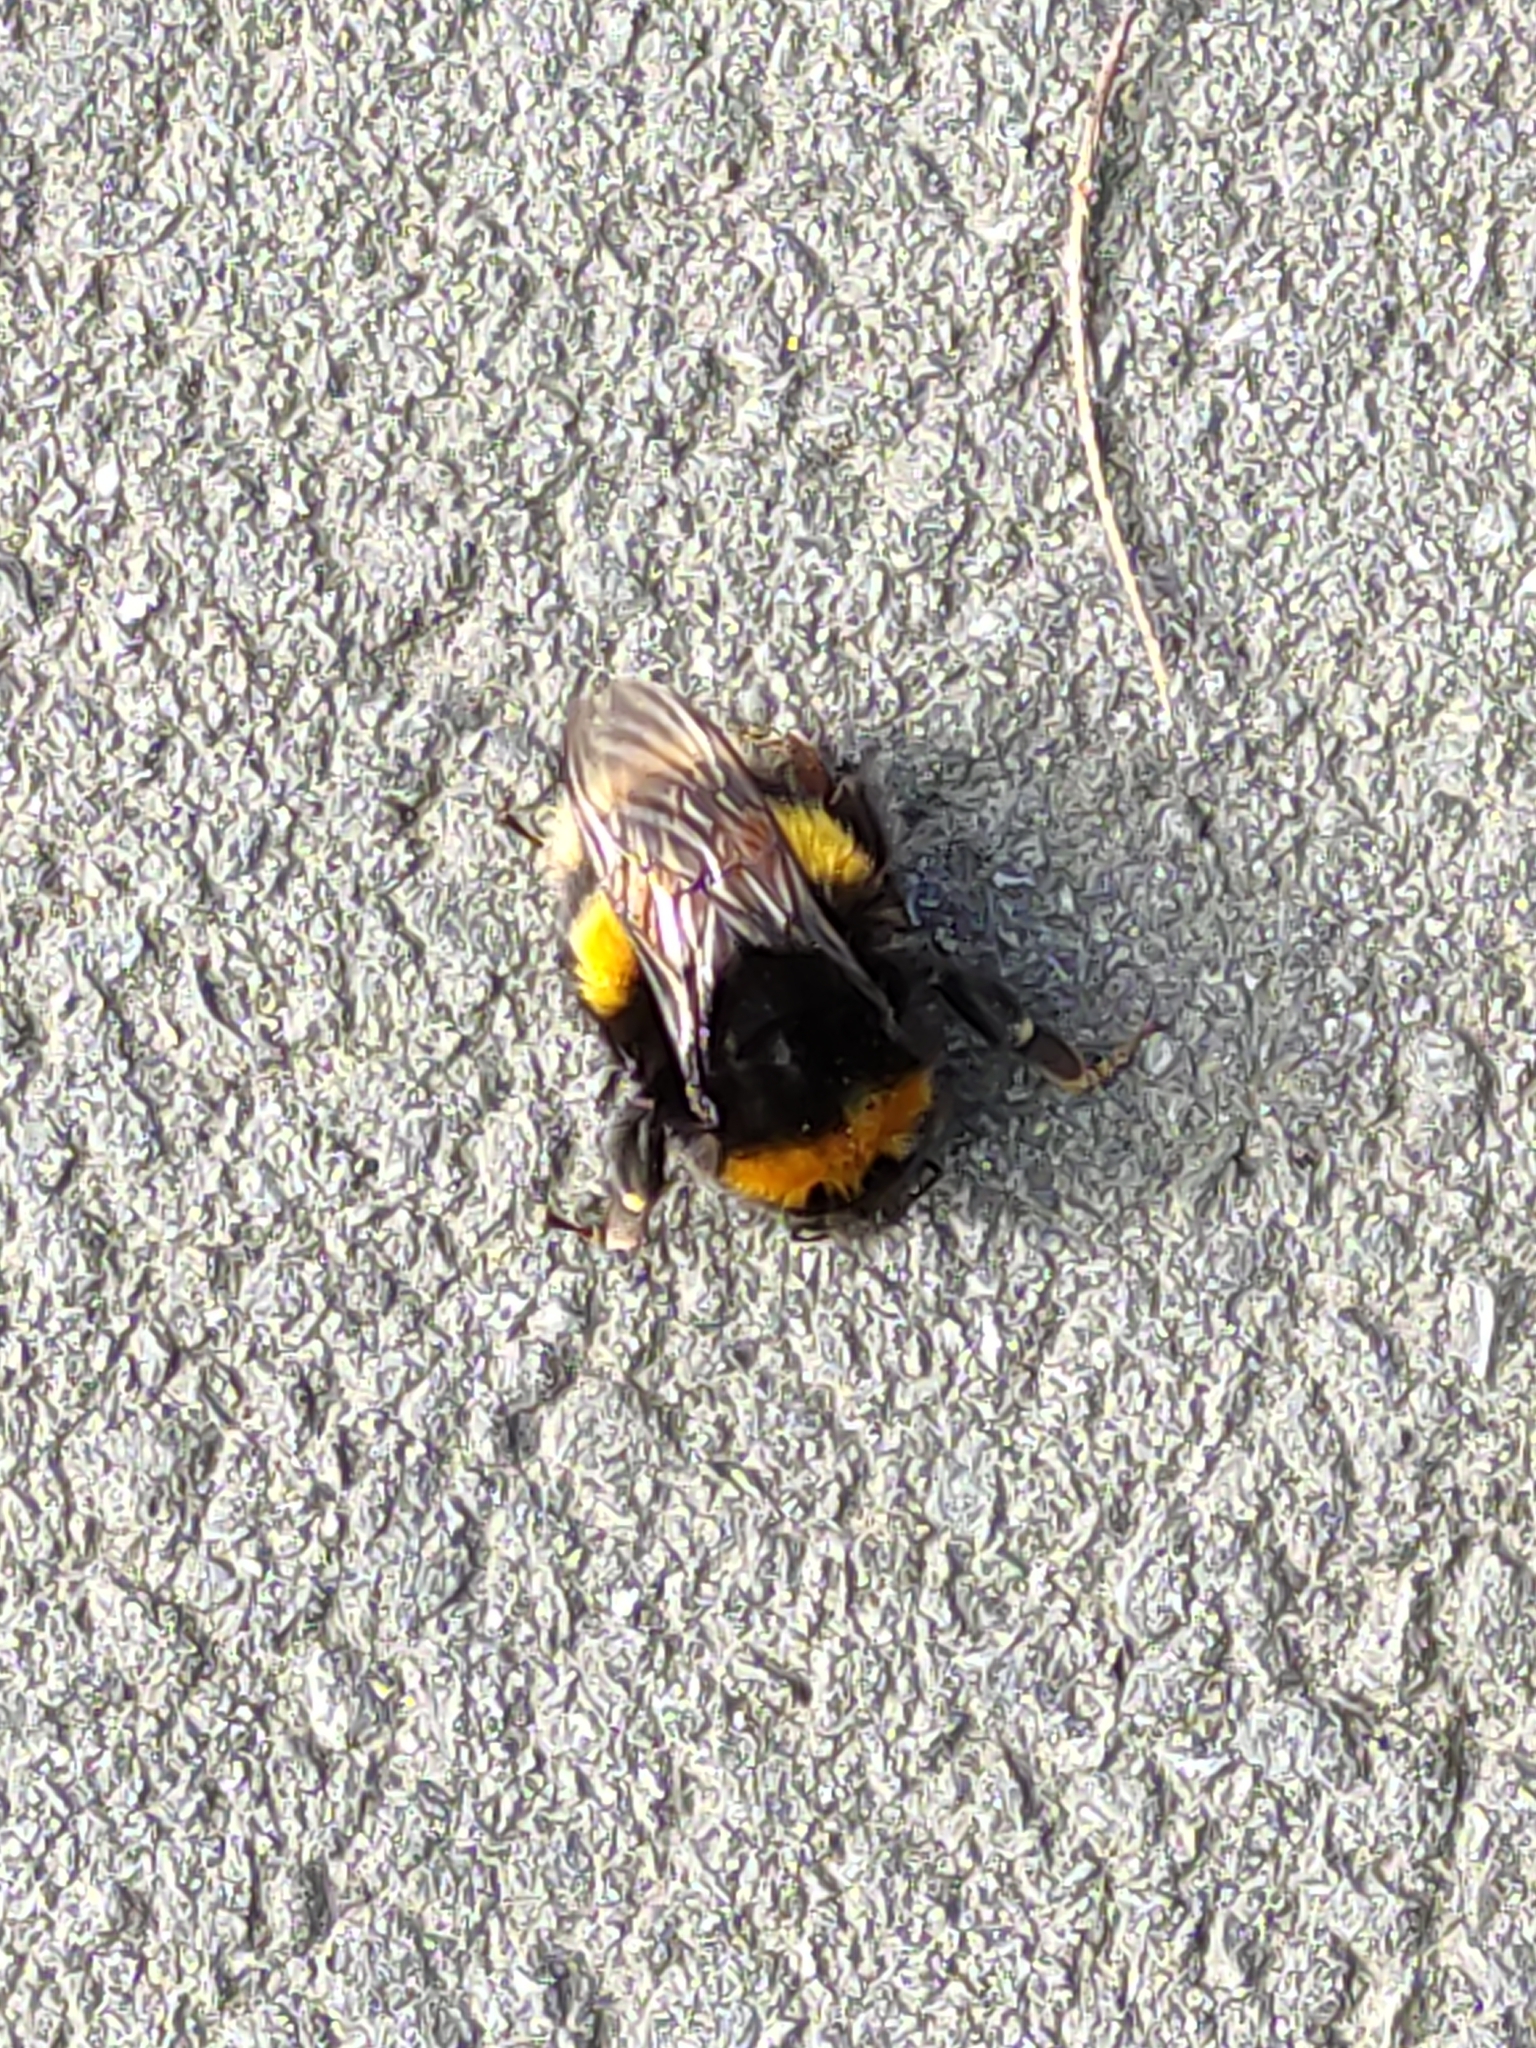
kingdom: Animalia
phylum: Arthropoda
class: Insecta
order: Hymenoptera
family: Apidae
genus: Bombus
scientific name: Bombus terrestris
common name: Buff-tailed bumblebee
